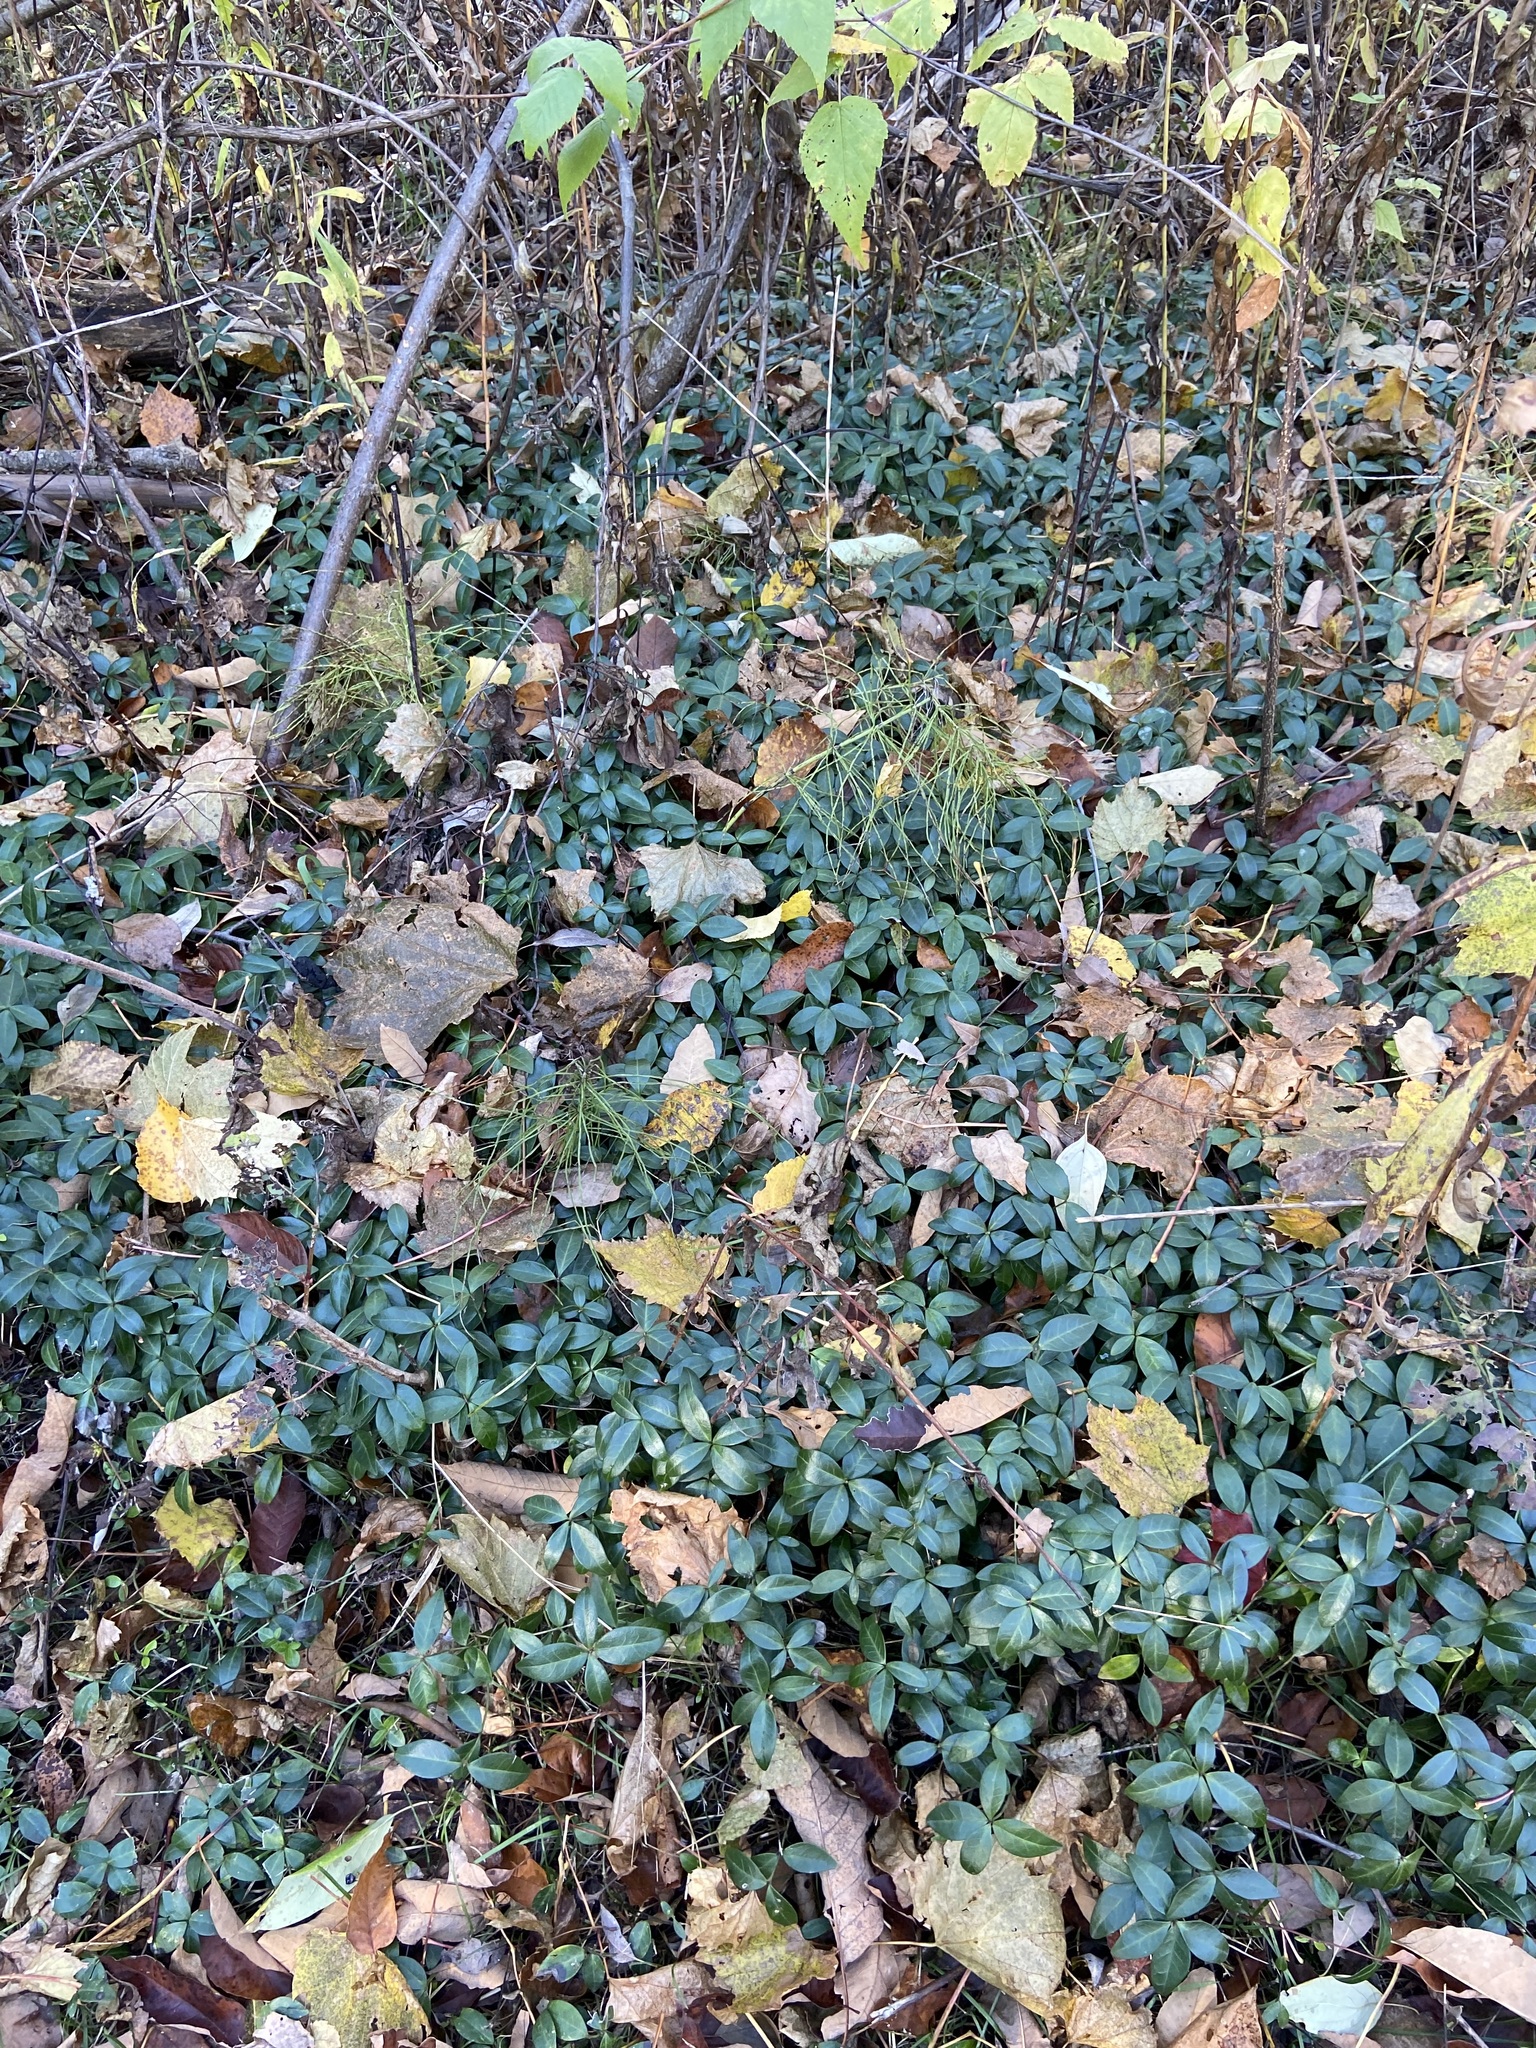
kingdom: Plantae
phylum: Tracheophyta
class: Magnoliopsida
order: Gentianales
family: Apocynaceae
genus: Vinca
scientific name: Vinca minor
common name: Lesser periwinkle
